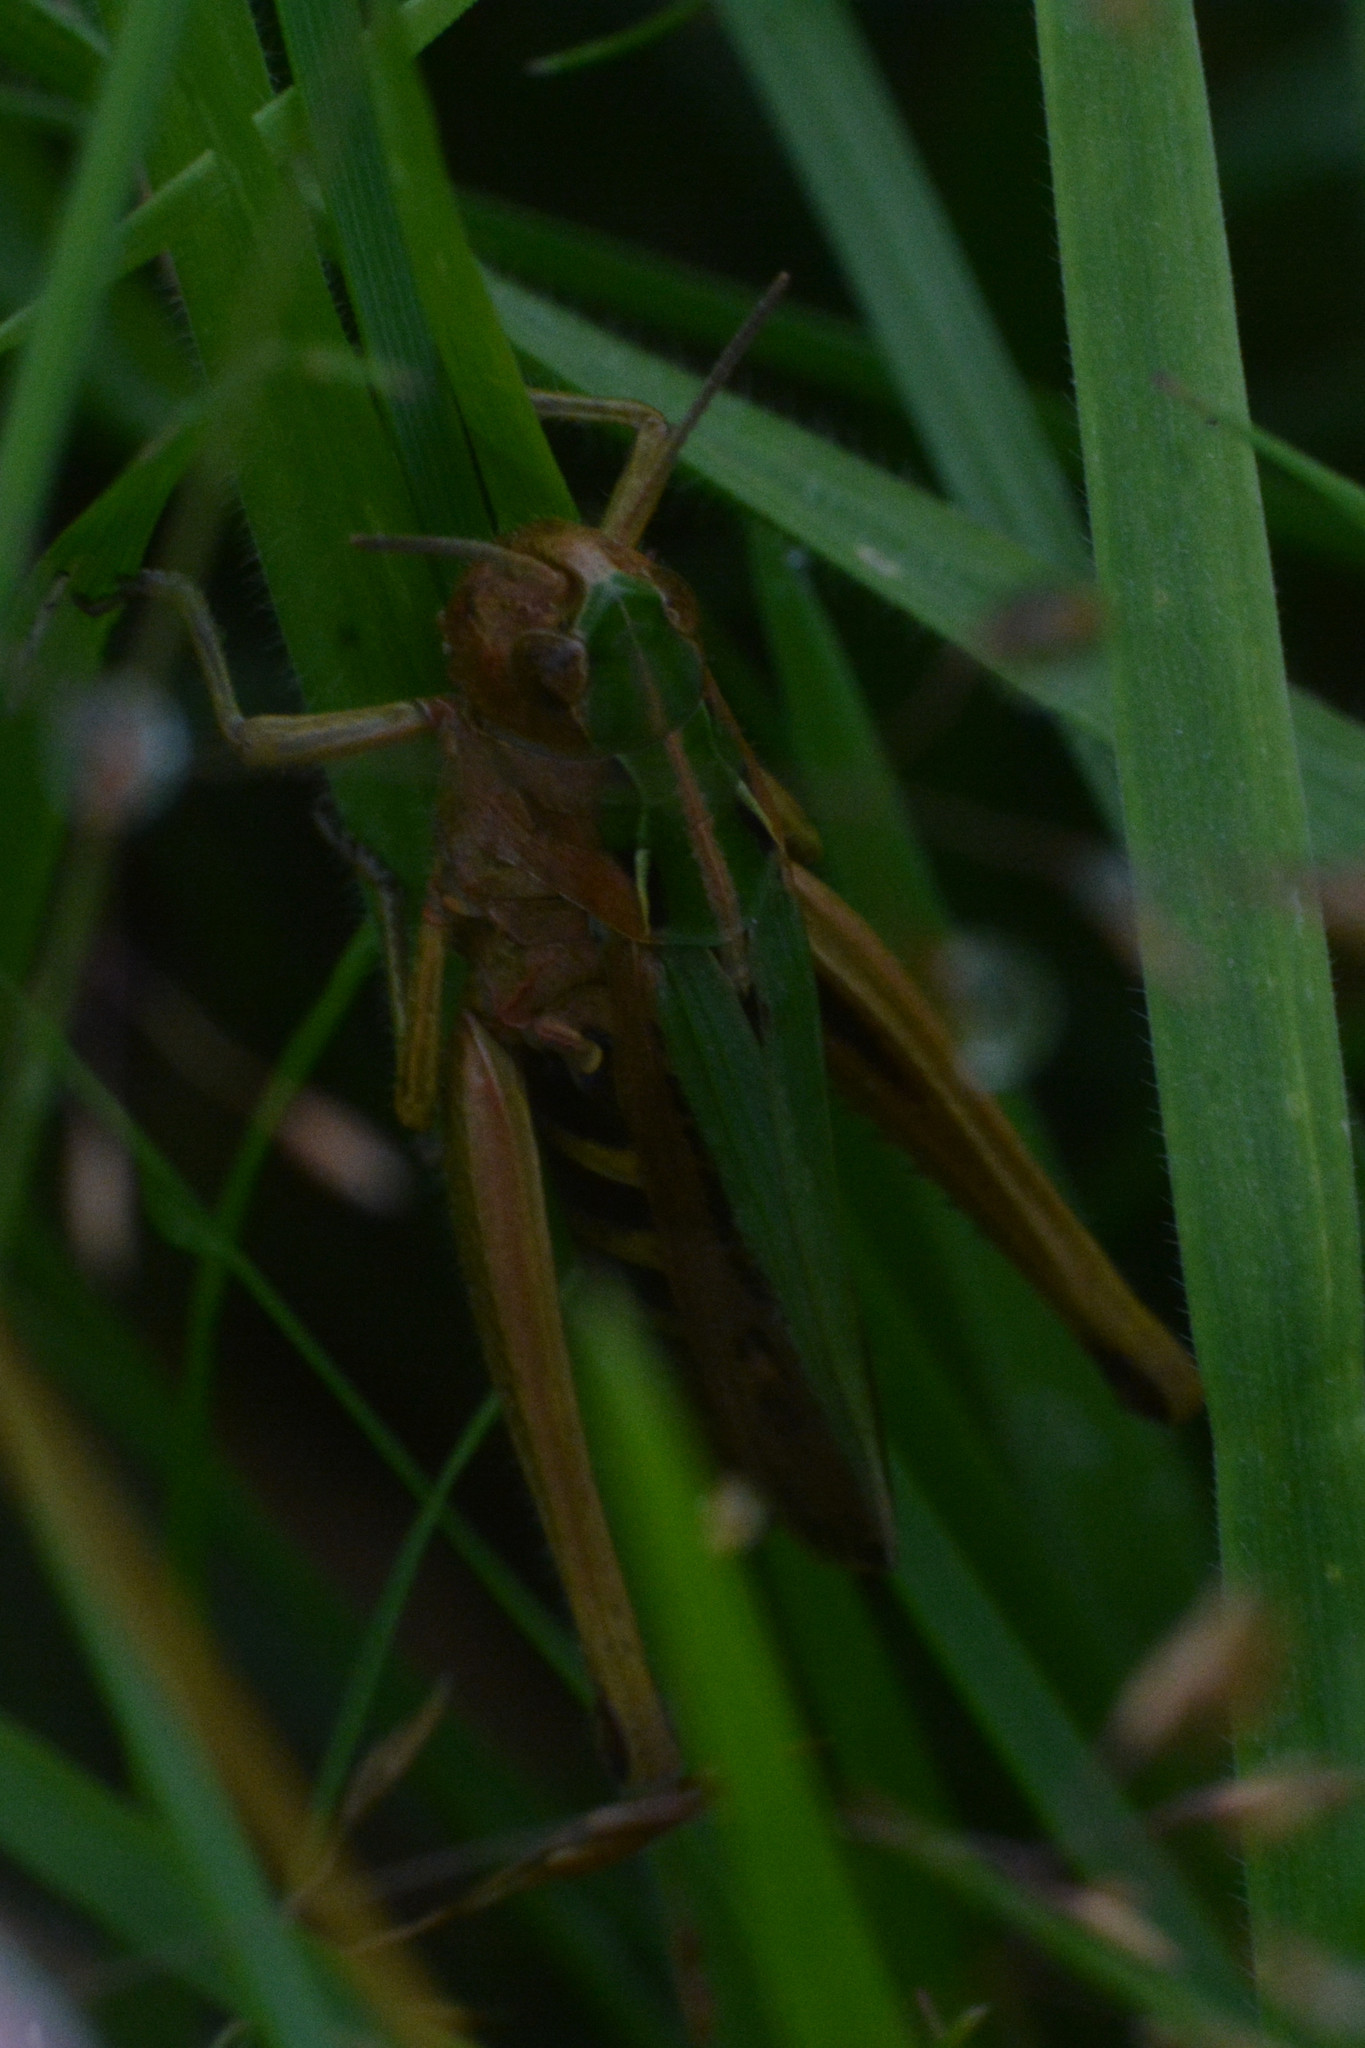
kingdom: Animalia
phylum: Arthropoda
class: Insecta
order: Orthoptera
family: Acrididae
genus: Omocestus
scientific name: Omocestus viridulus
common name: Common green grasshopper
